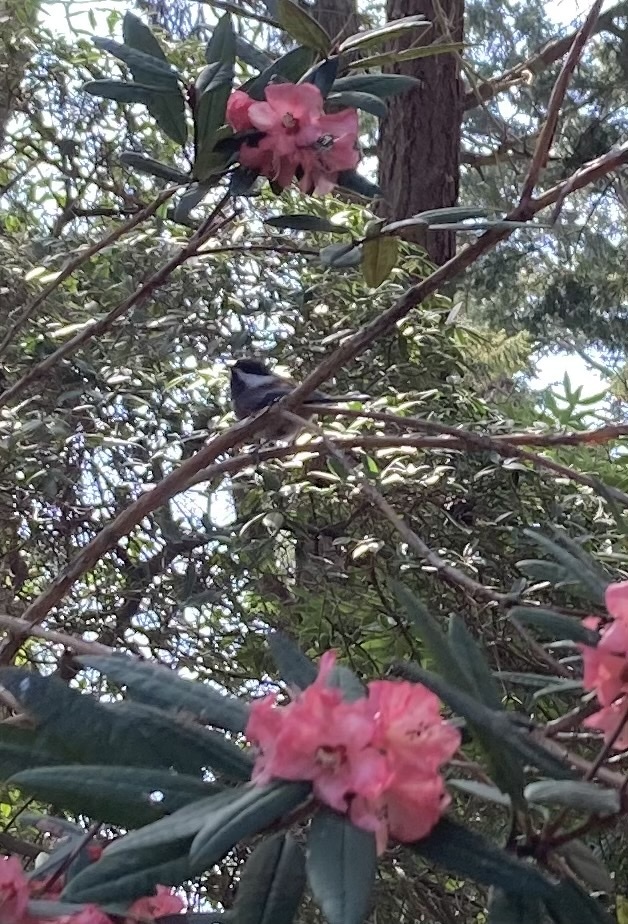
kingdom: Animalia
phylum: Chordata
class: Aves
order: Passeriformes
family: Paridae
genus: Poecile
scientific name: Poecile rufescens
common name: Chestnut-backed chickadee
